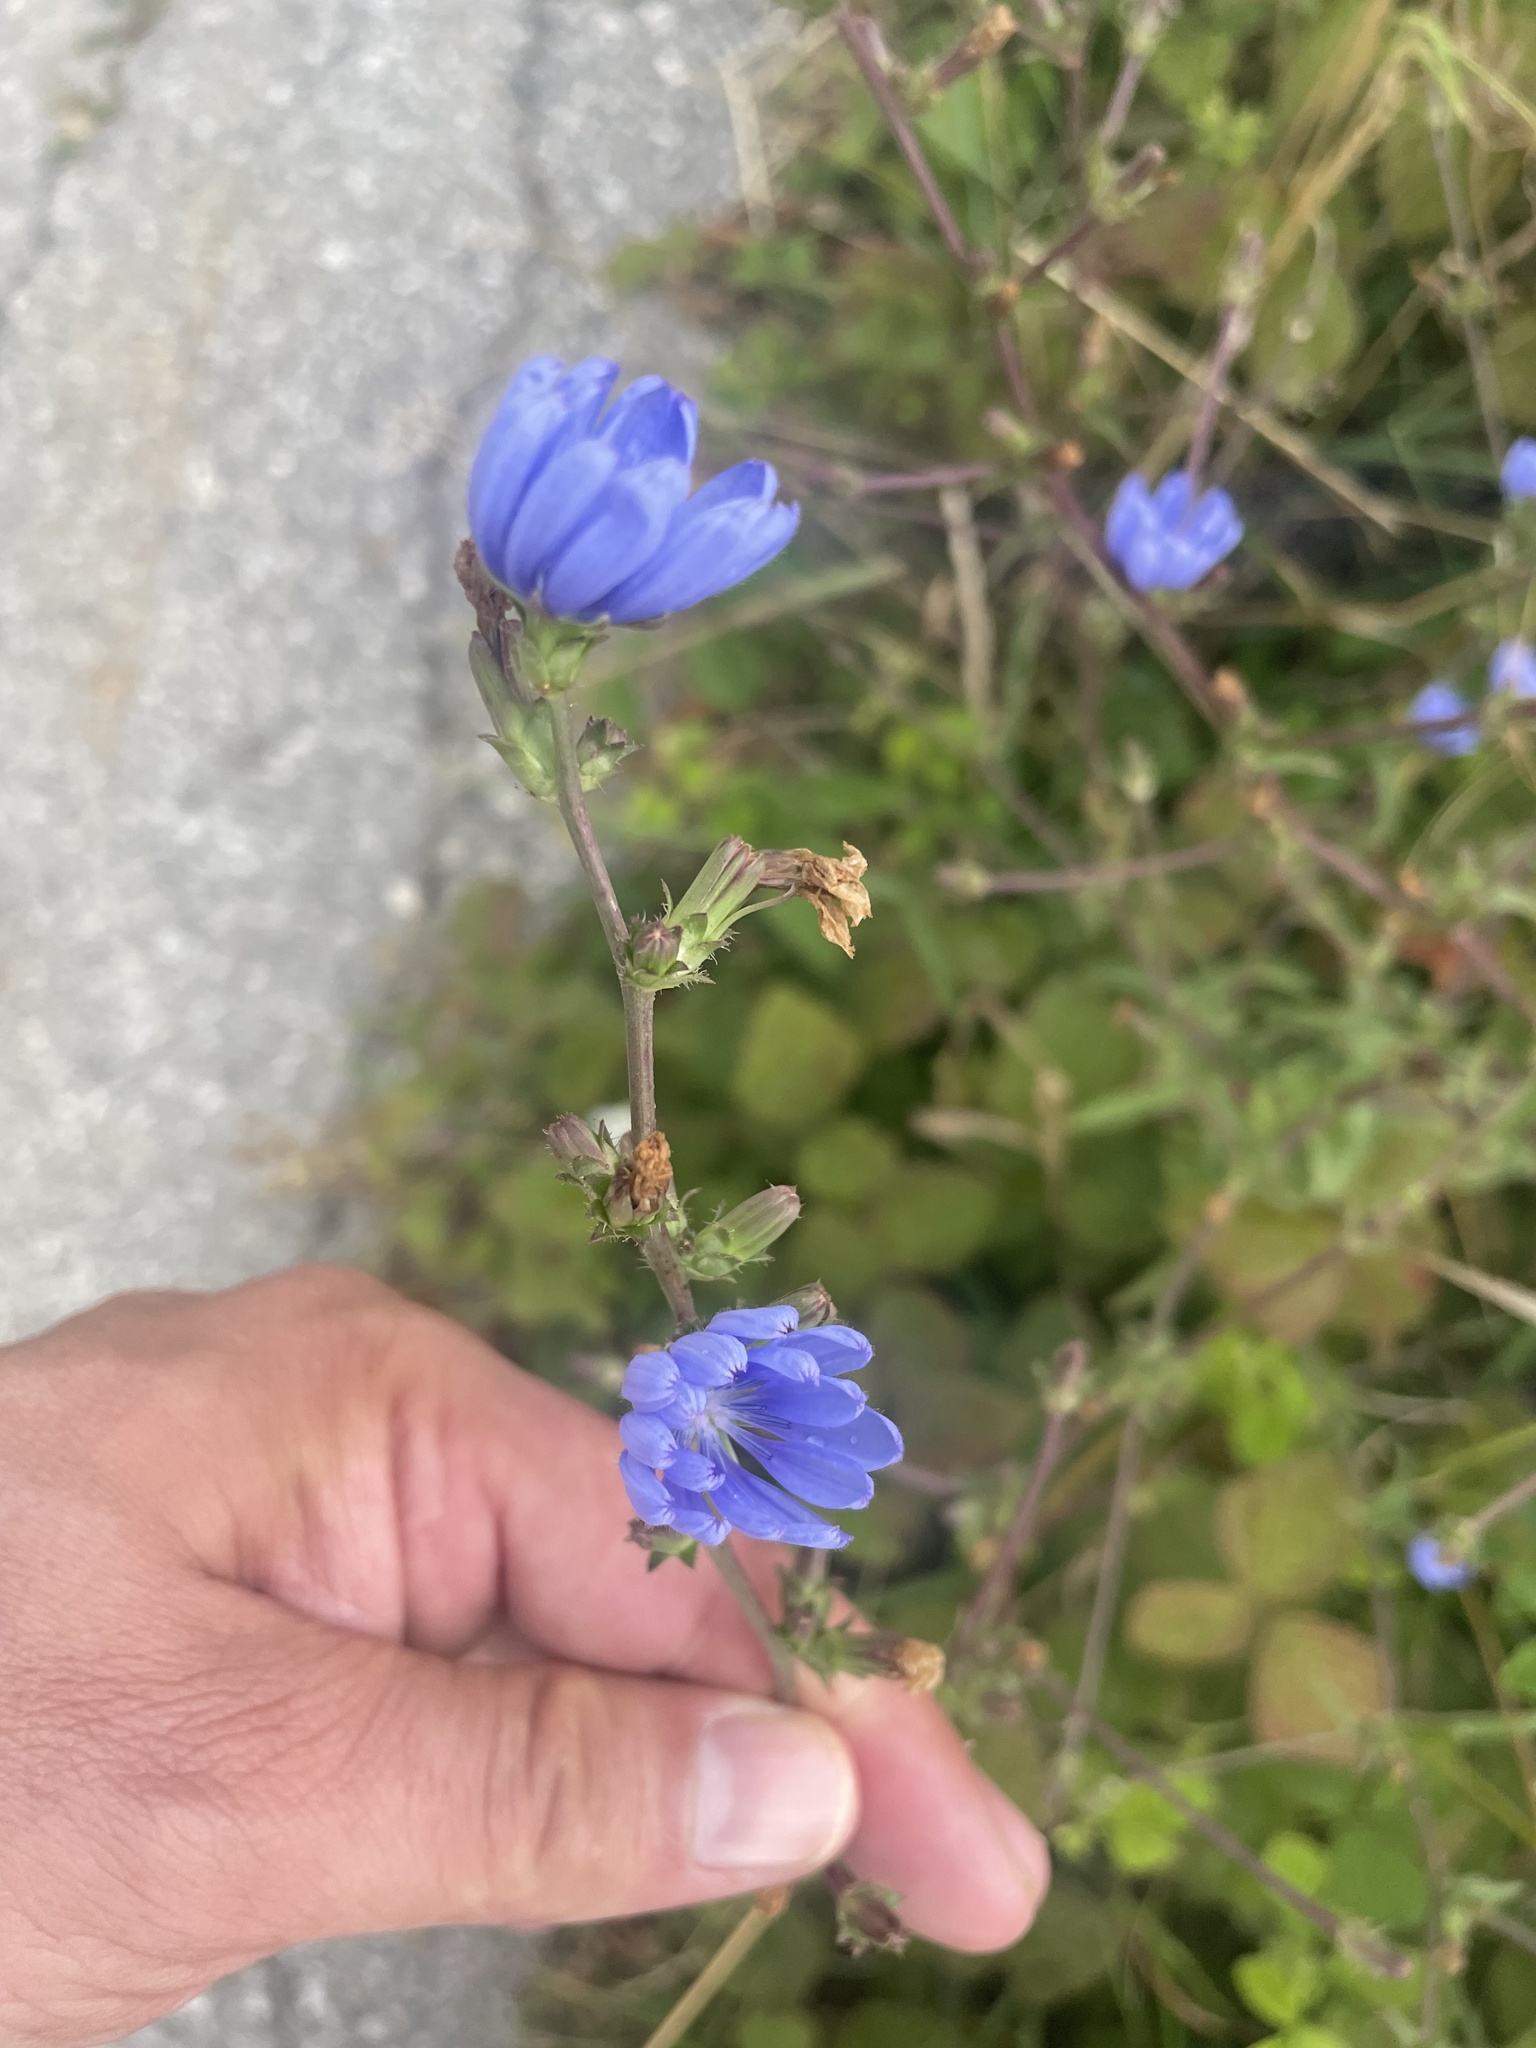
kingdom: Plantae
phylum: Tracheophyta
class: Magnoliopsida
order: Asterales
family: Asteraceae
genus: Cichorium
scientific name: Cichorium intybus
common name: Chicory
